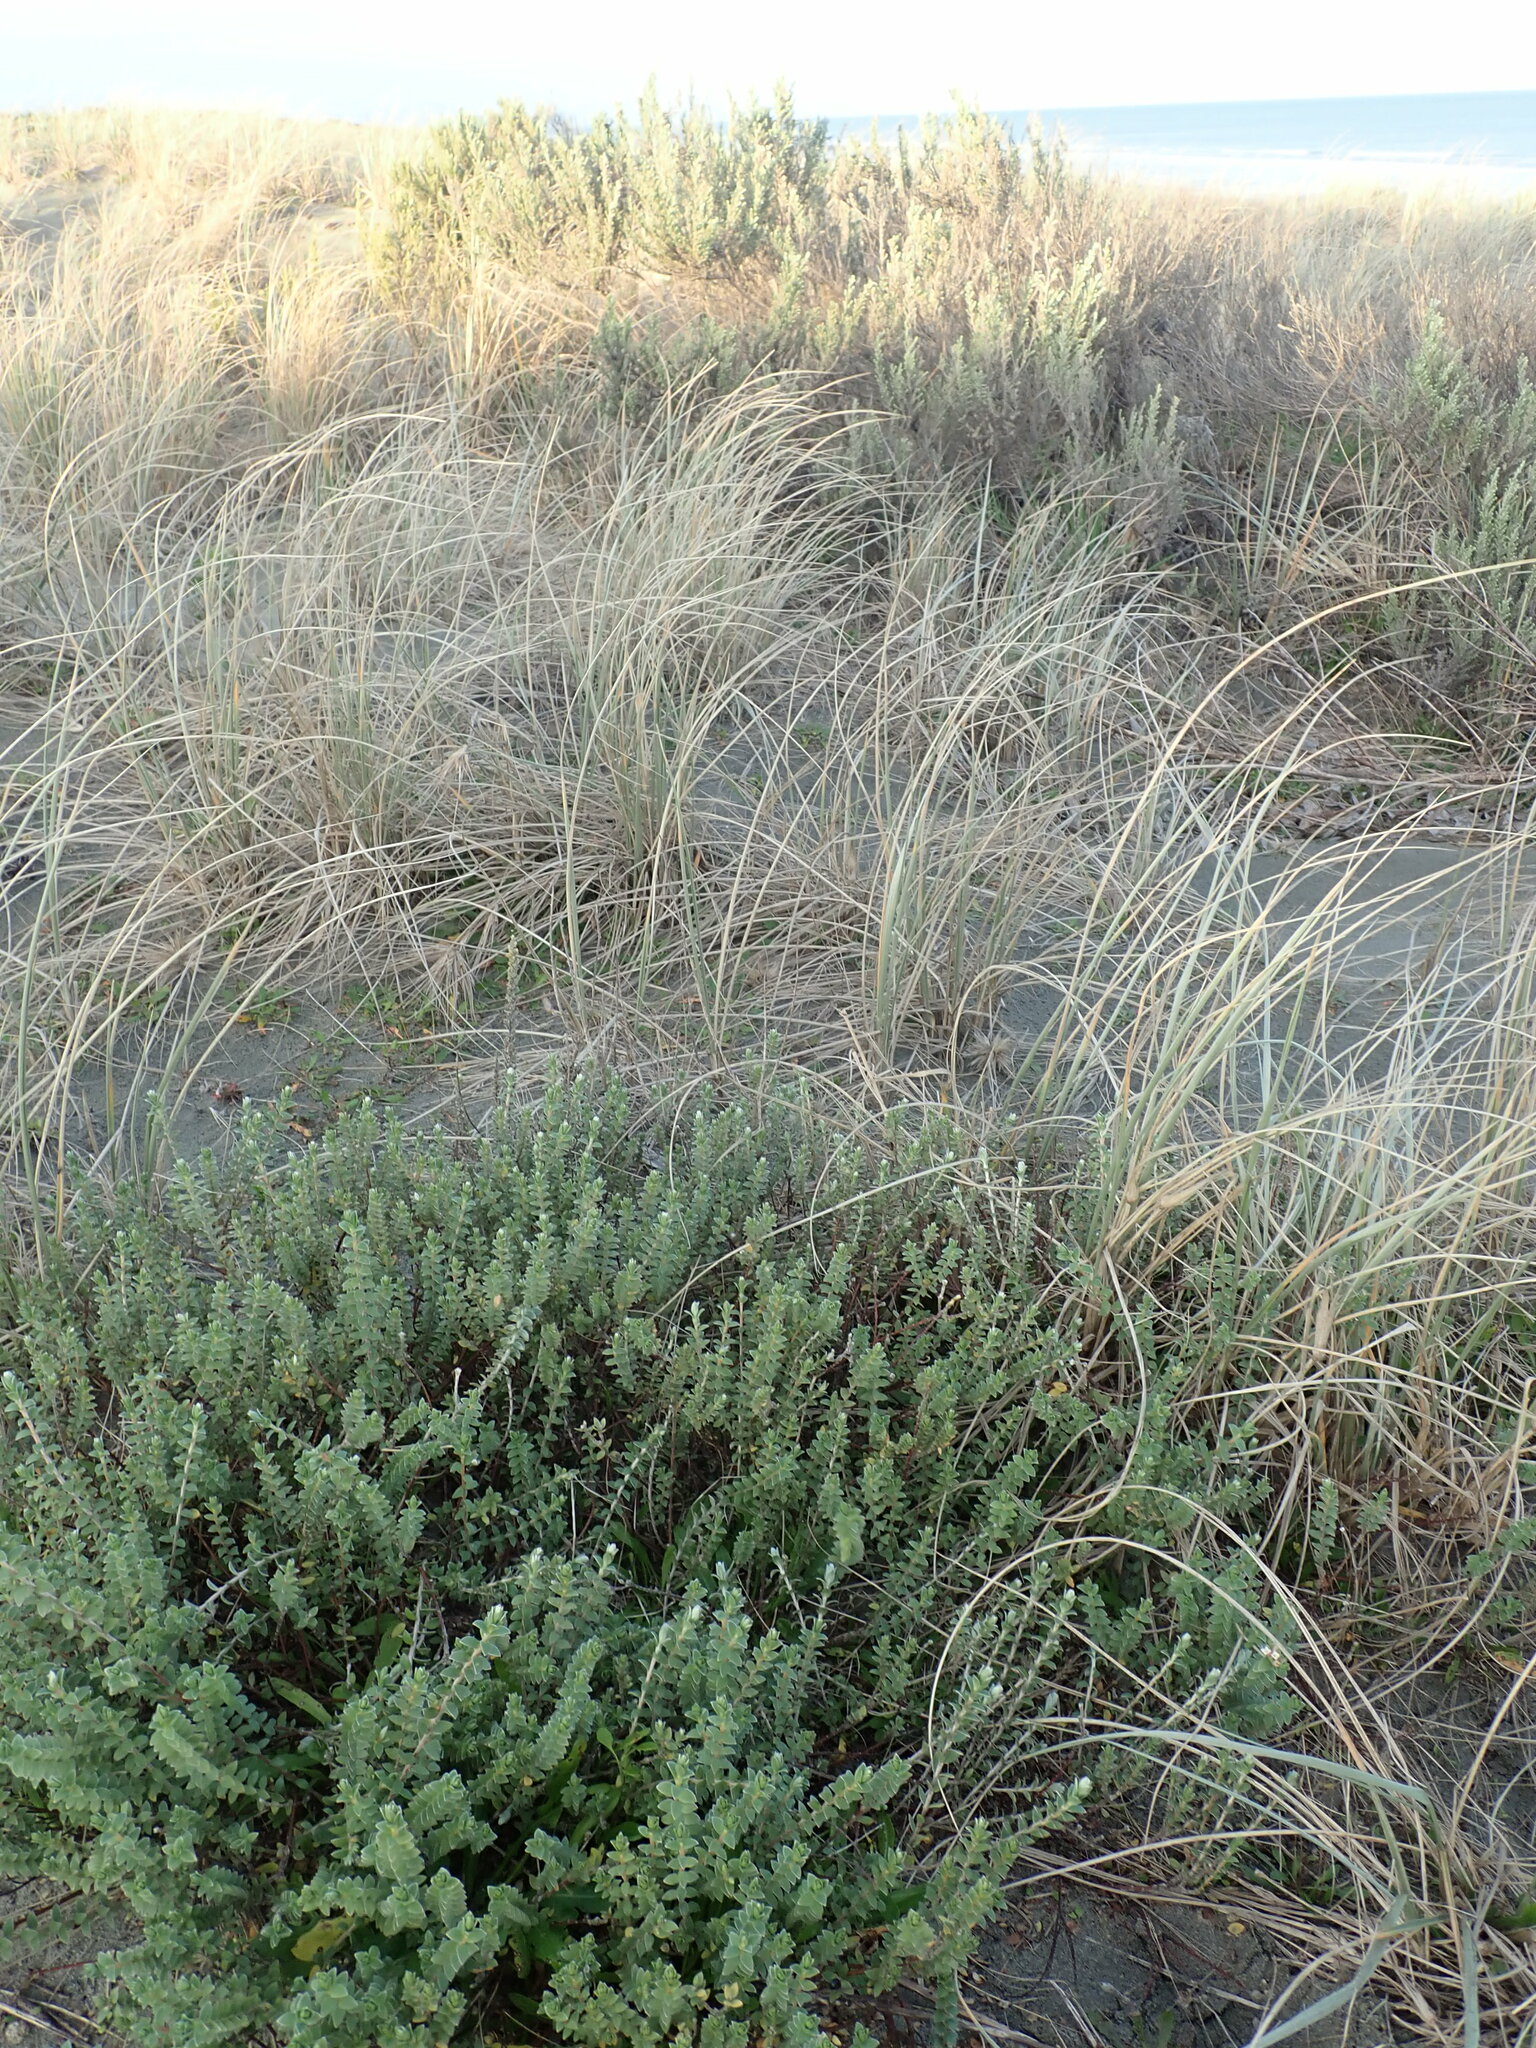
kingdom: Animalia
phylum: Arthropoda
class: Arachnida
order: Araneae
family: Theridiidae
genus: Latrodectus
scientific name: Latrodectus katipo
